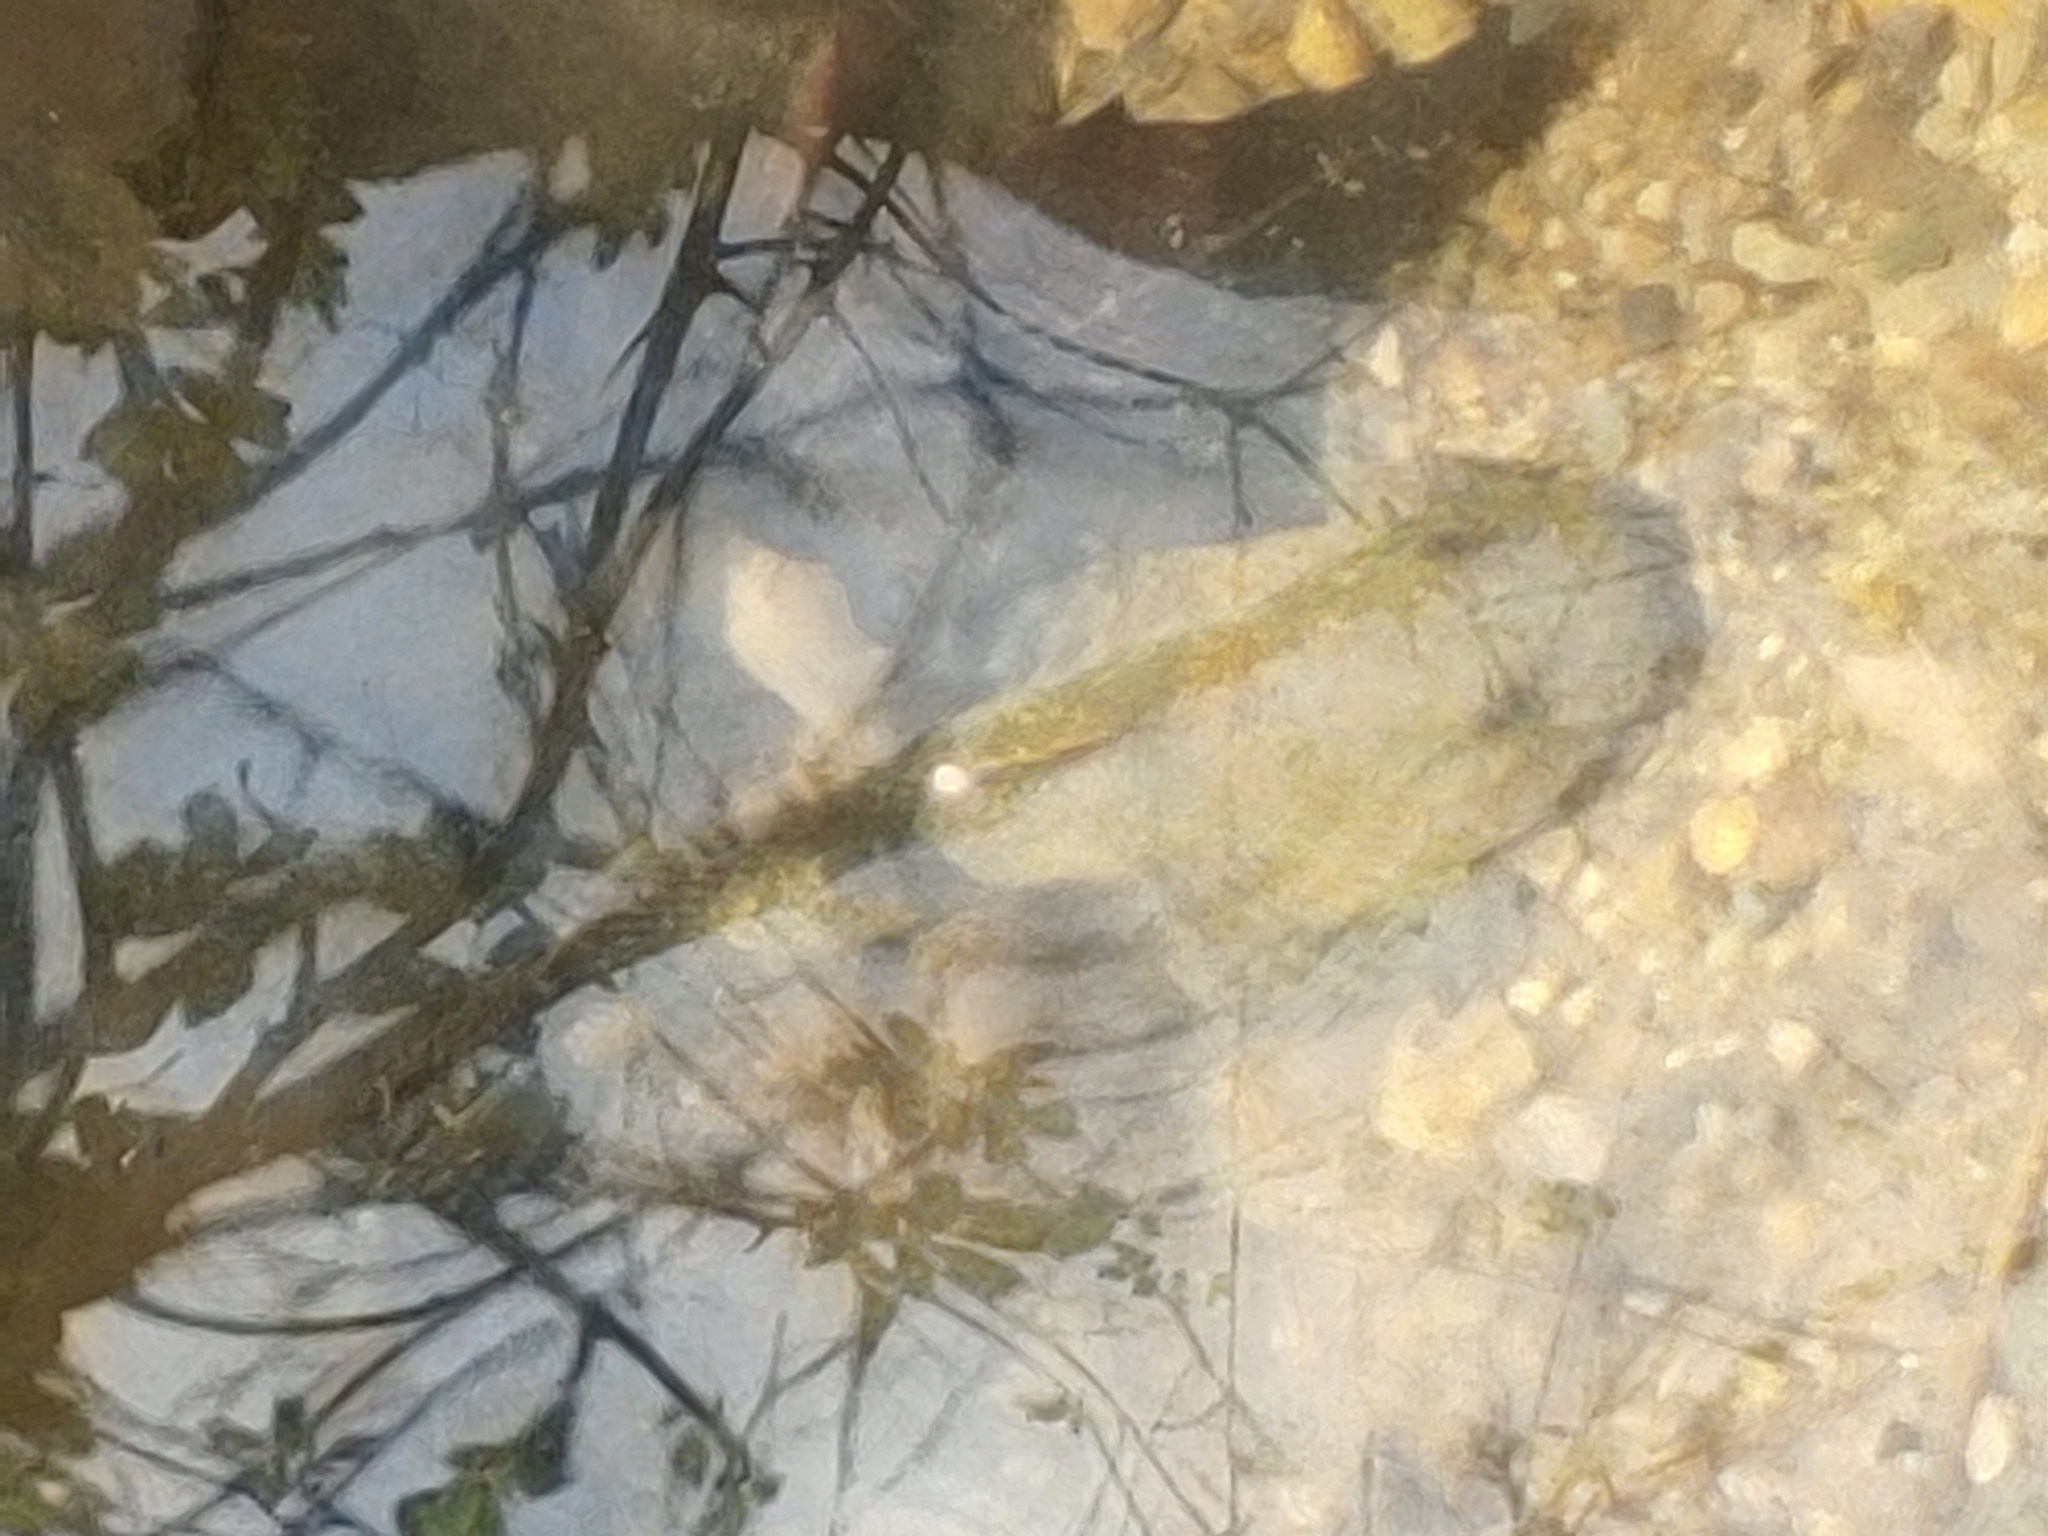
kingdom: Animalia
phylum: Chordata
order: Scorpaeniformes
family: Cottidae
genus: Cottus
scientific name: Cottus bairdii
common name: Mottled sculpin
